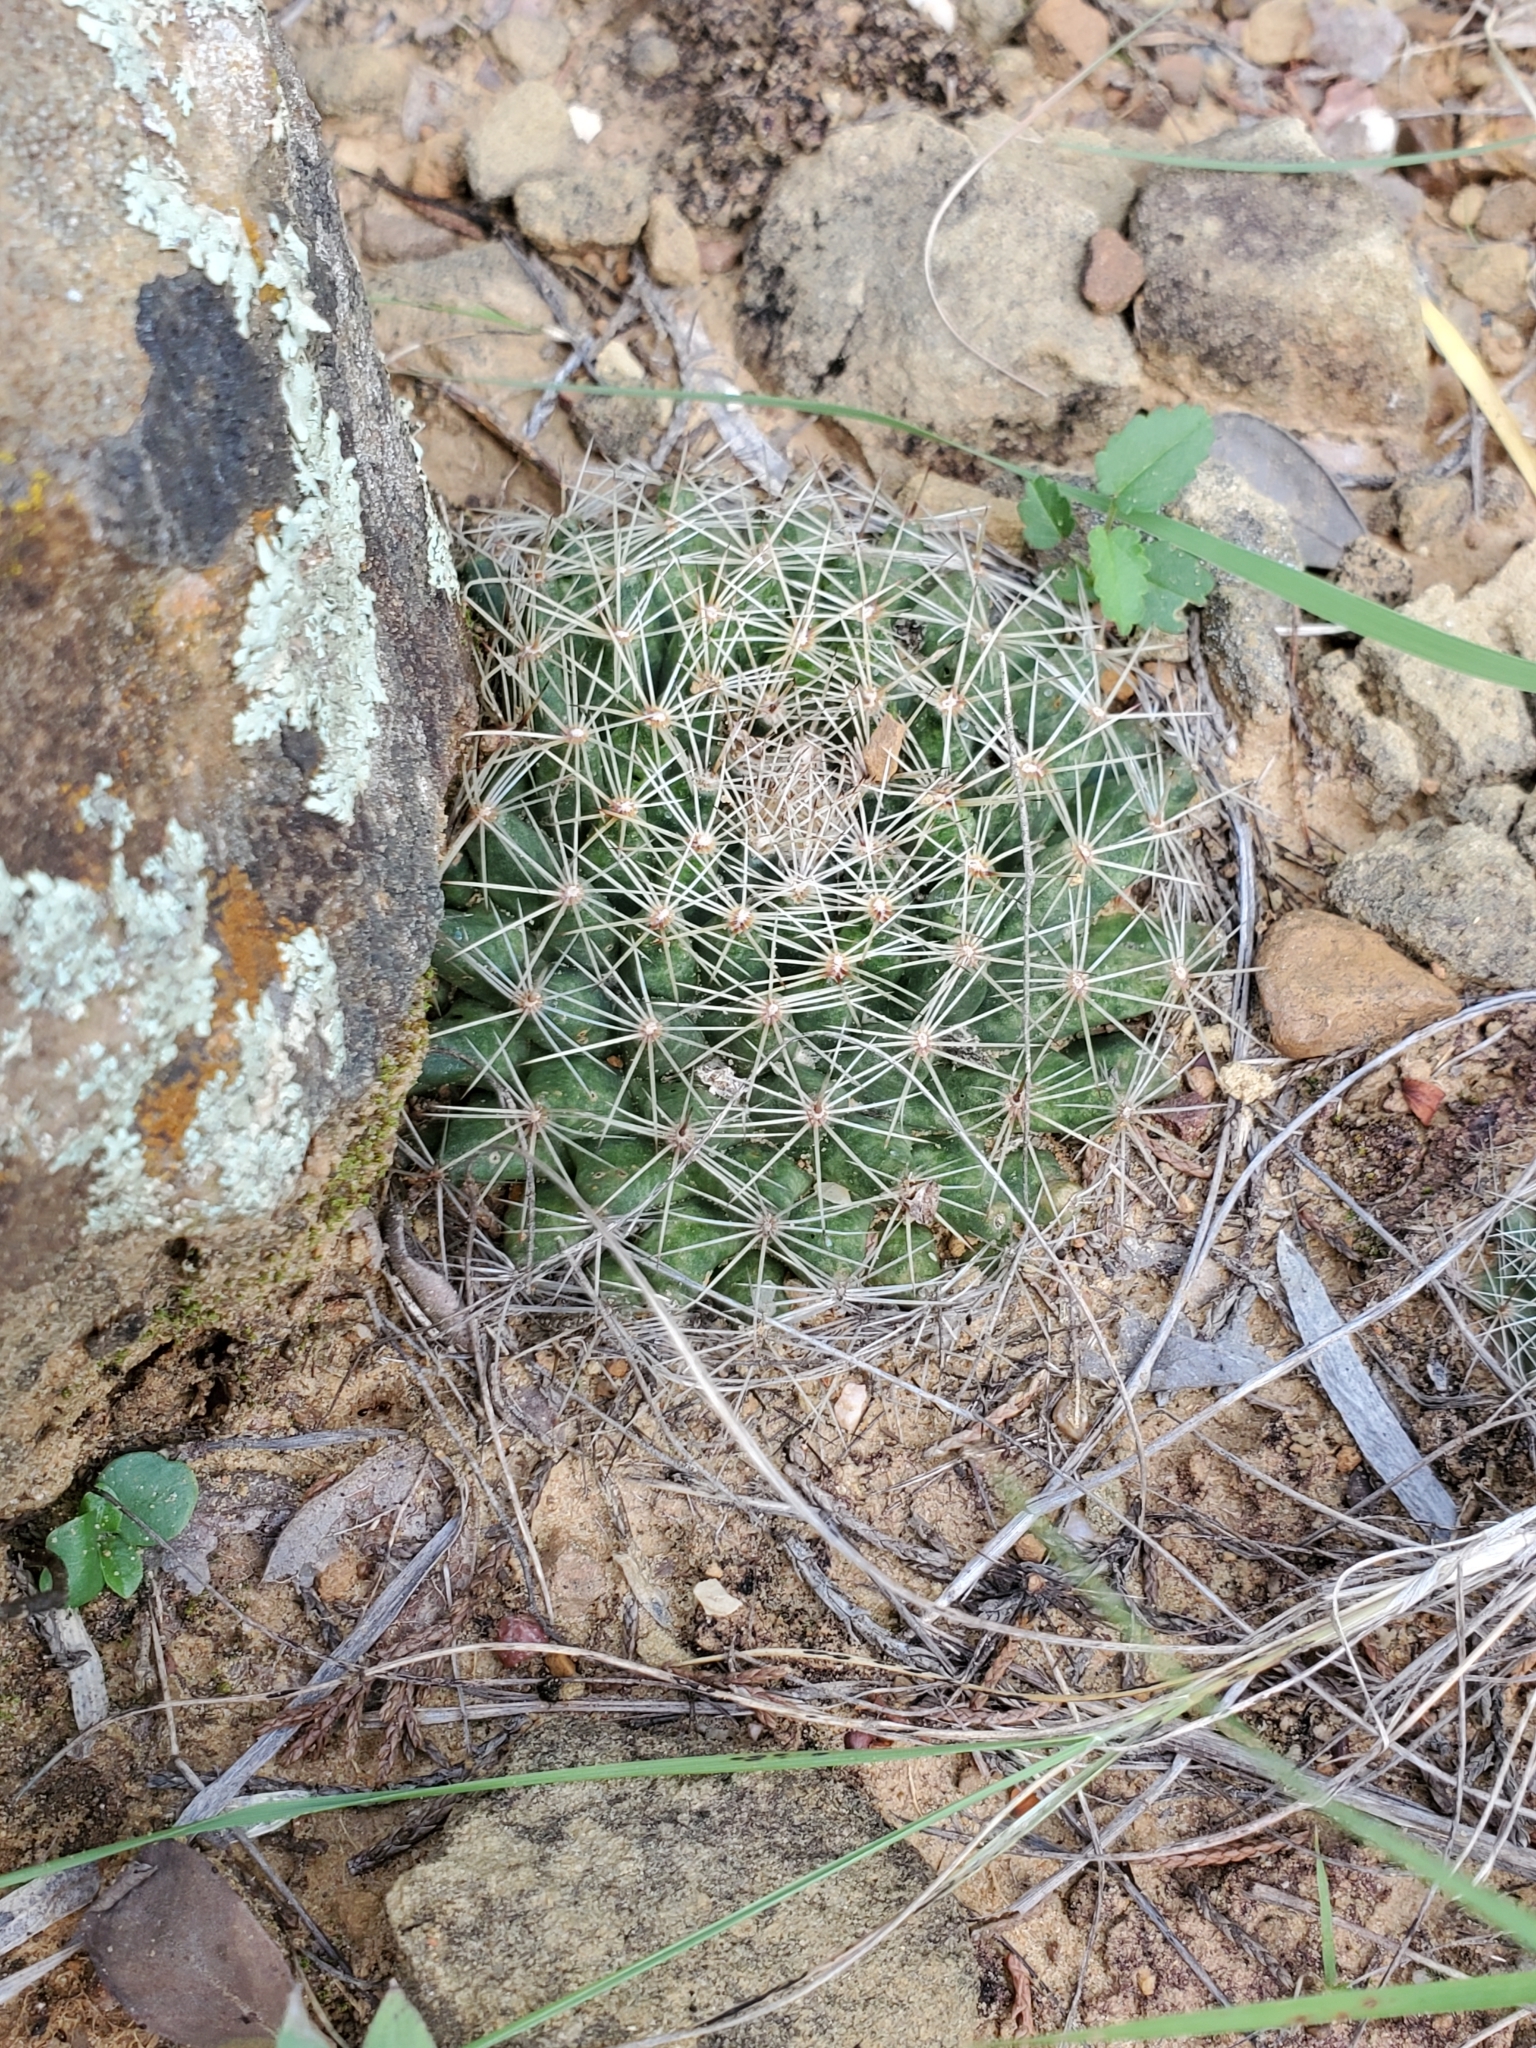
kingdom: Plantae
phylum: Tracheophyta
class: Magnoliopsida
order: Caryophyllales
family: Cactaceae
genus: Mammillaria
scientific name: Mammillaria heyderi
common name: Little nipple cactus
